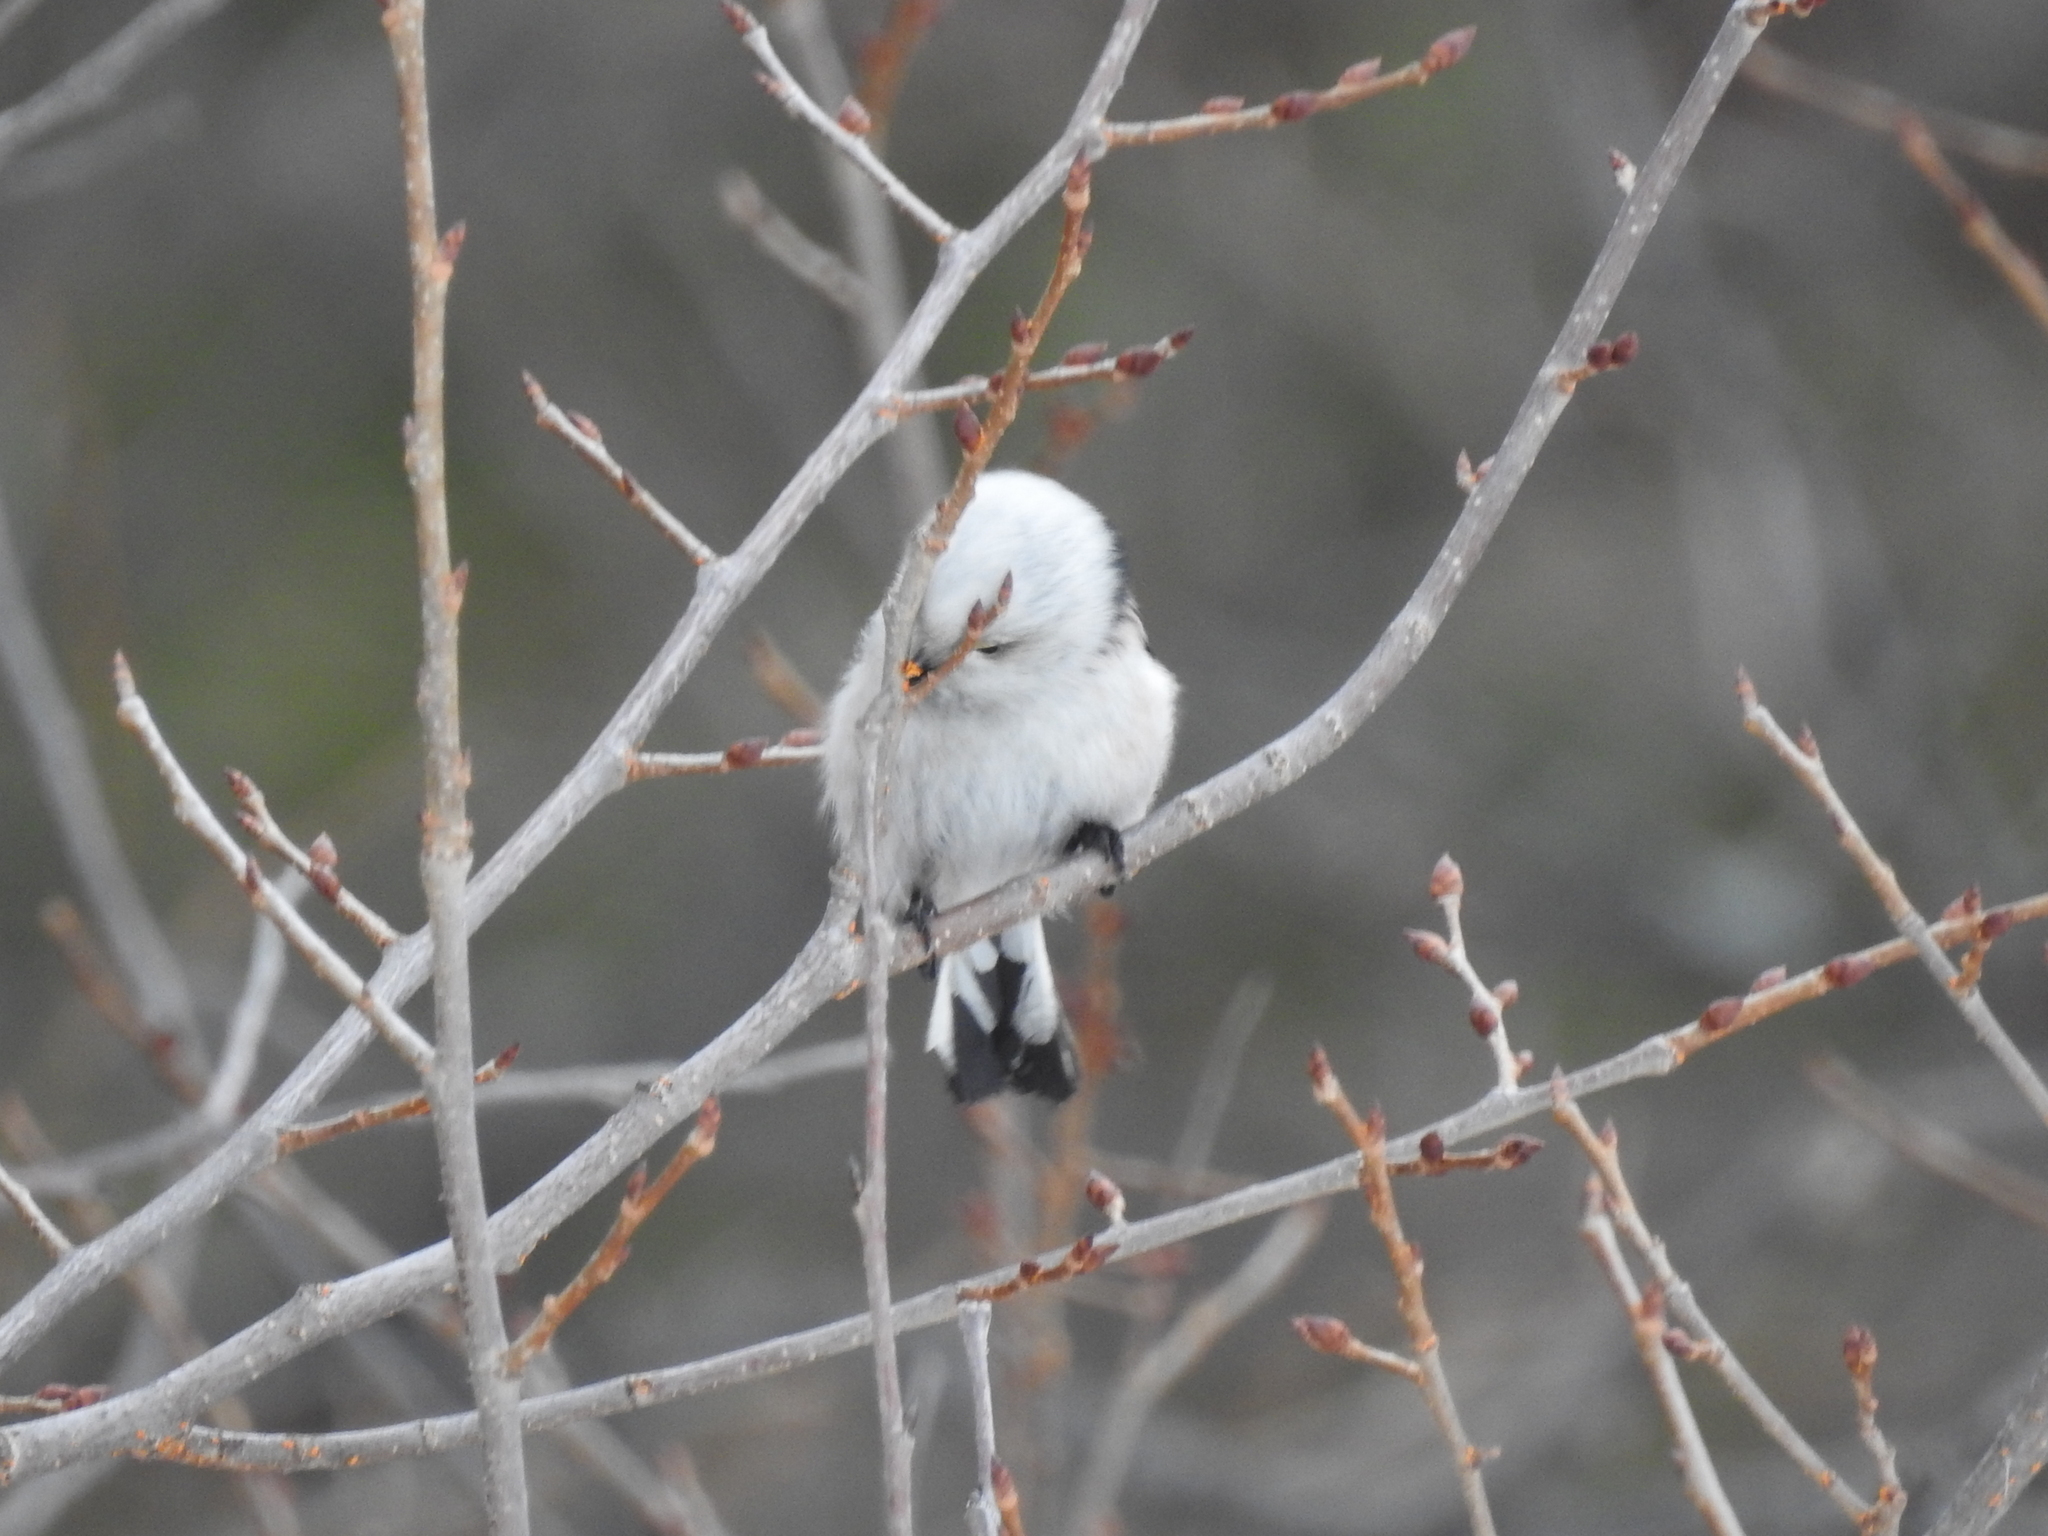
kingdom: Animalia
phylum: Chordata
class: Aves
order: Passeriformes
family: Aegithalidae
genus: Aegithalos
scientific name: Aegithalos caudatus
